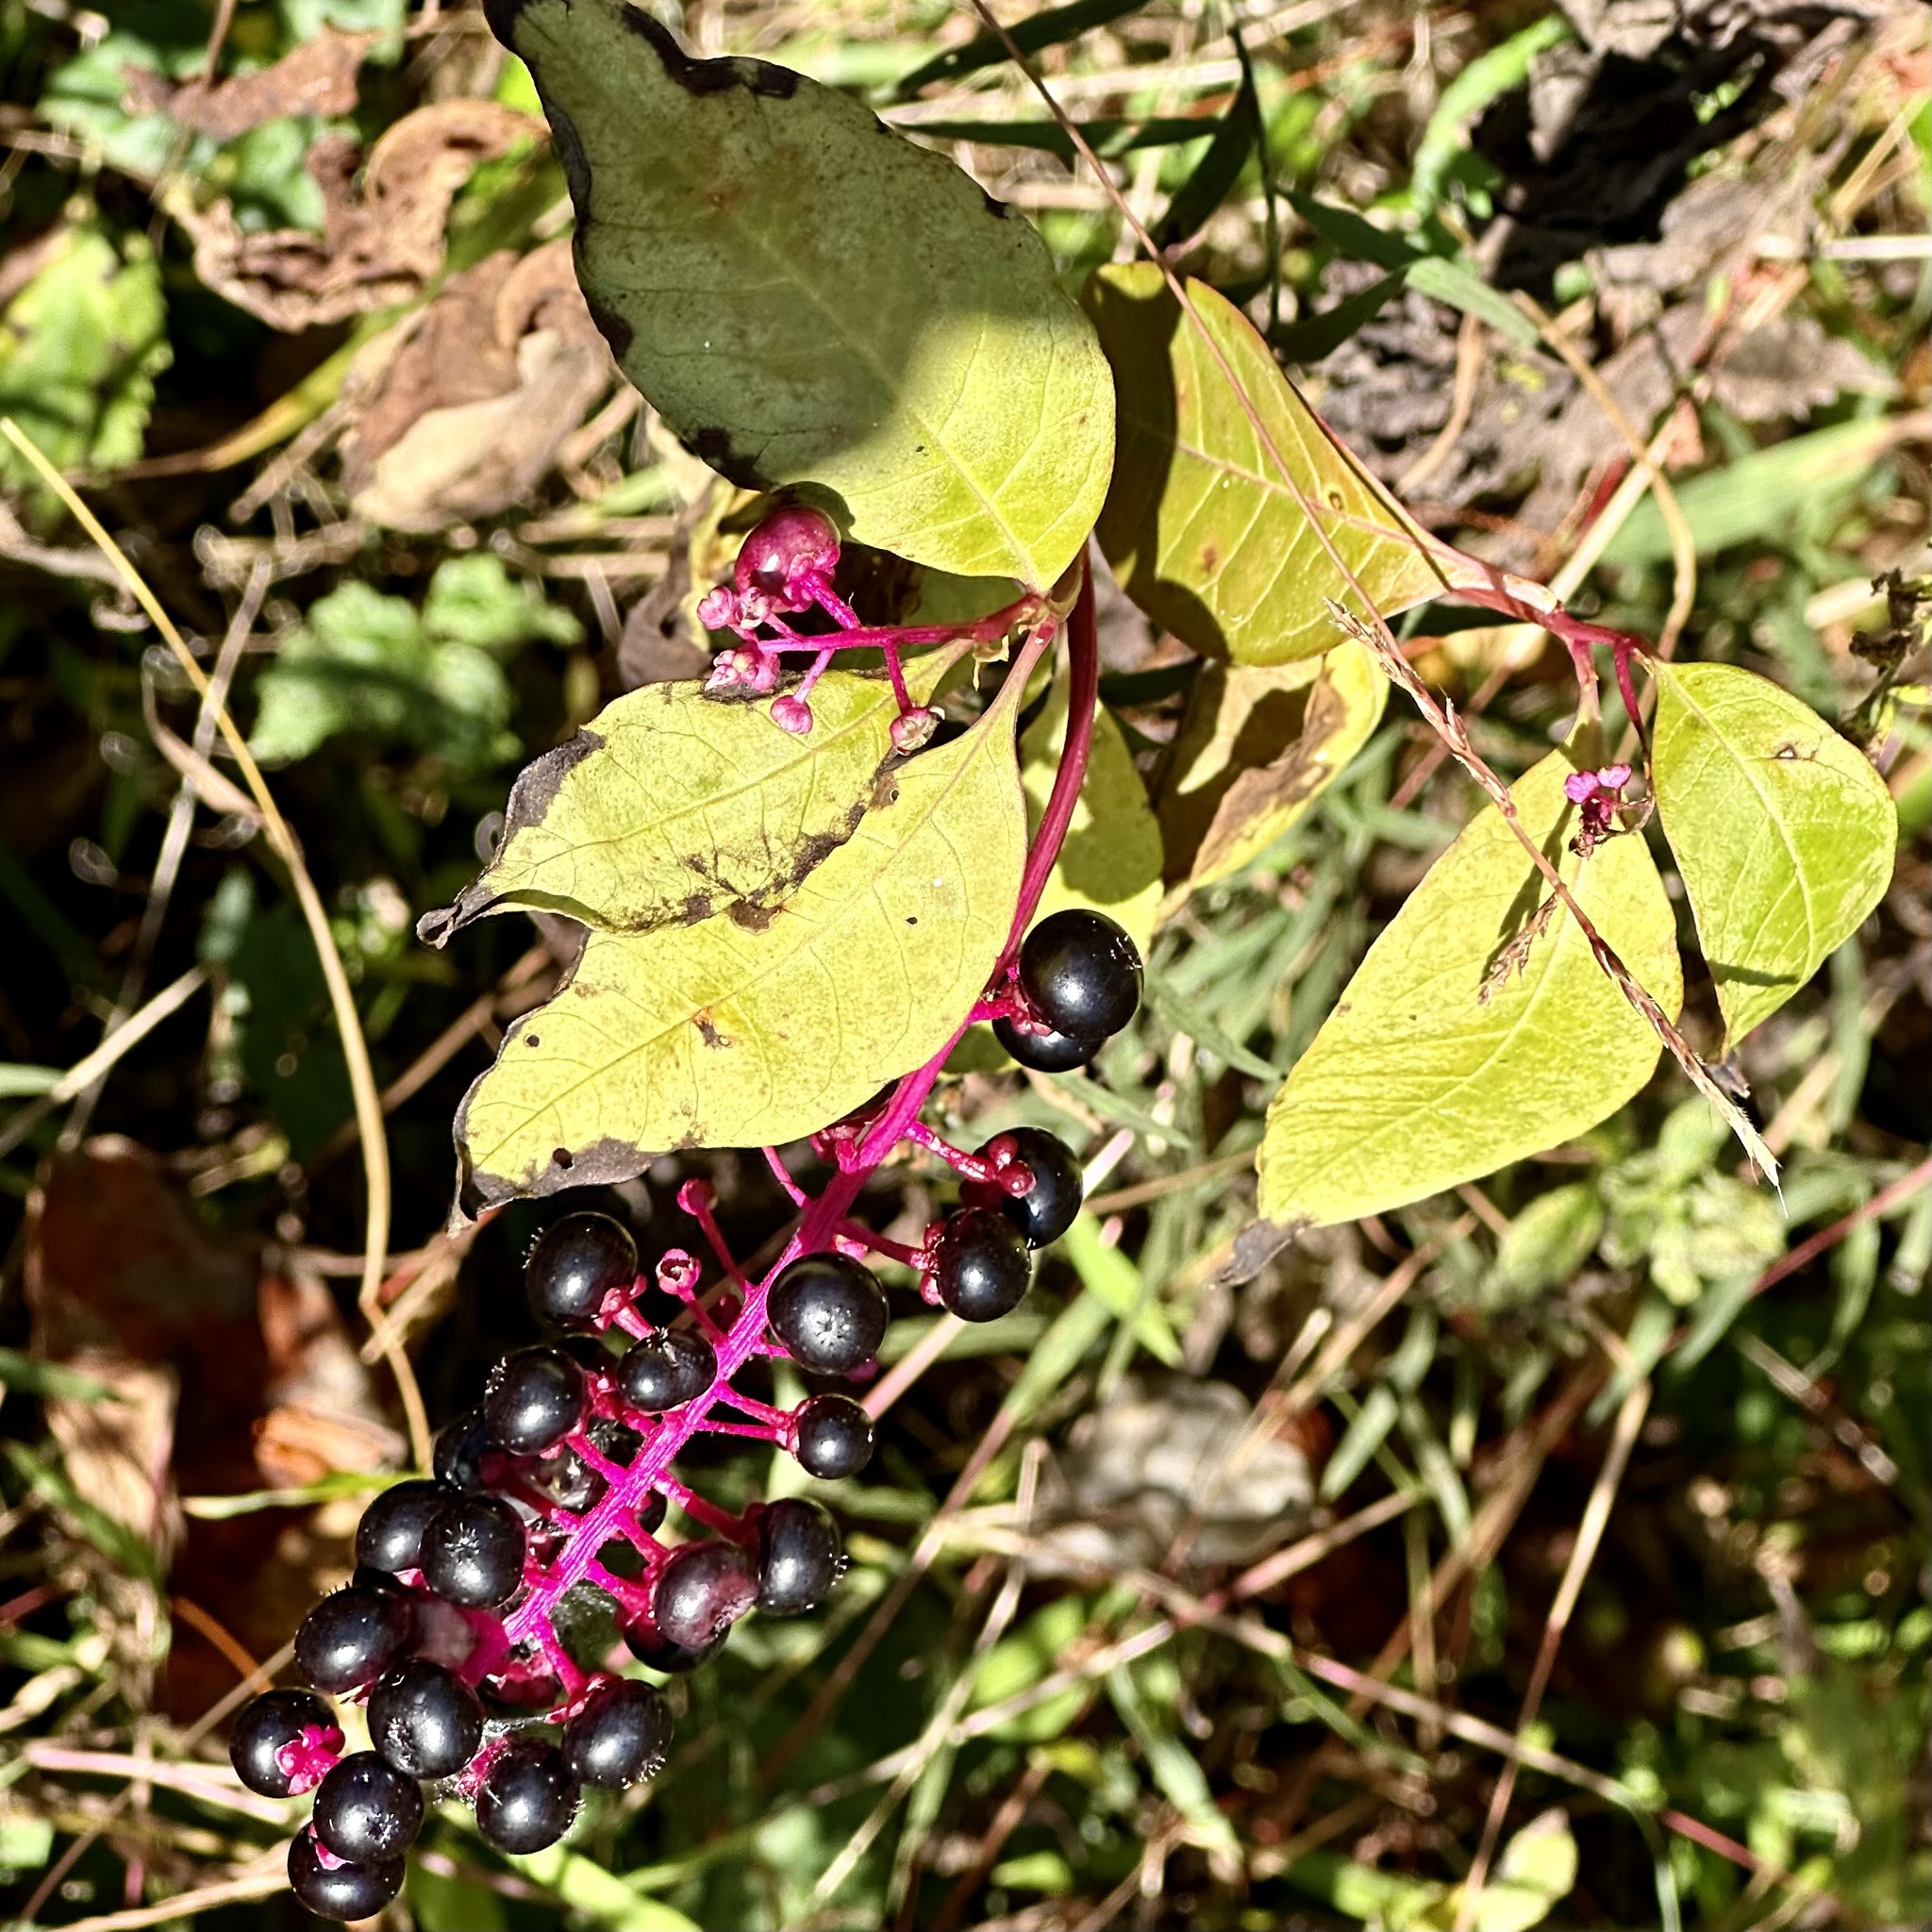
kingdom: Plantae
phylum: Tracheophyta
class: Magnoliopsida
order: Caryophyllales
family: Phytolaccaceae
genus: Phytolacca
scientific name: Phytolacca americana
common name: American pokeweed
